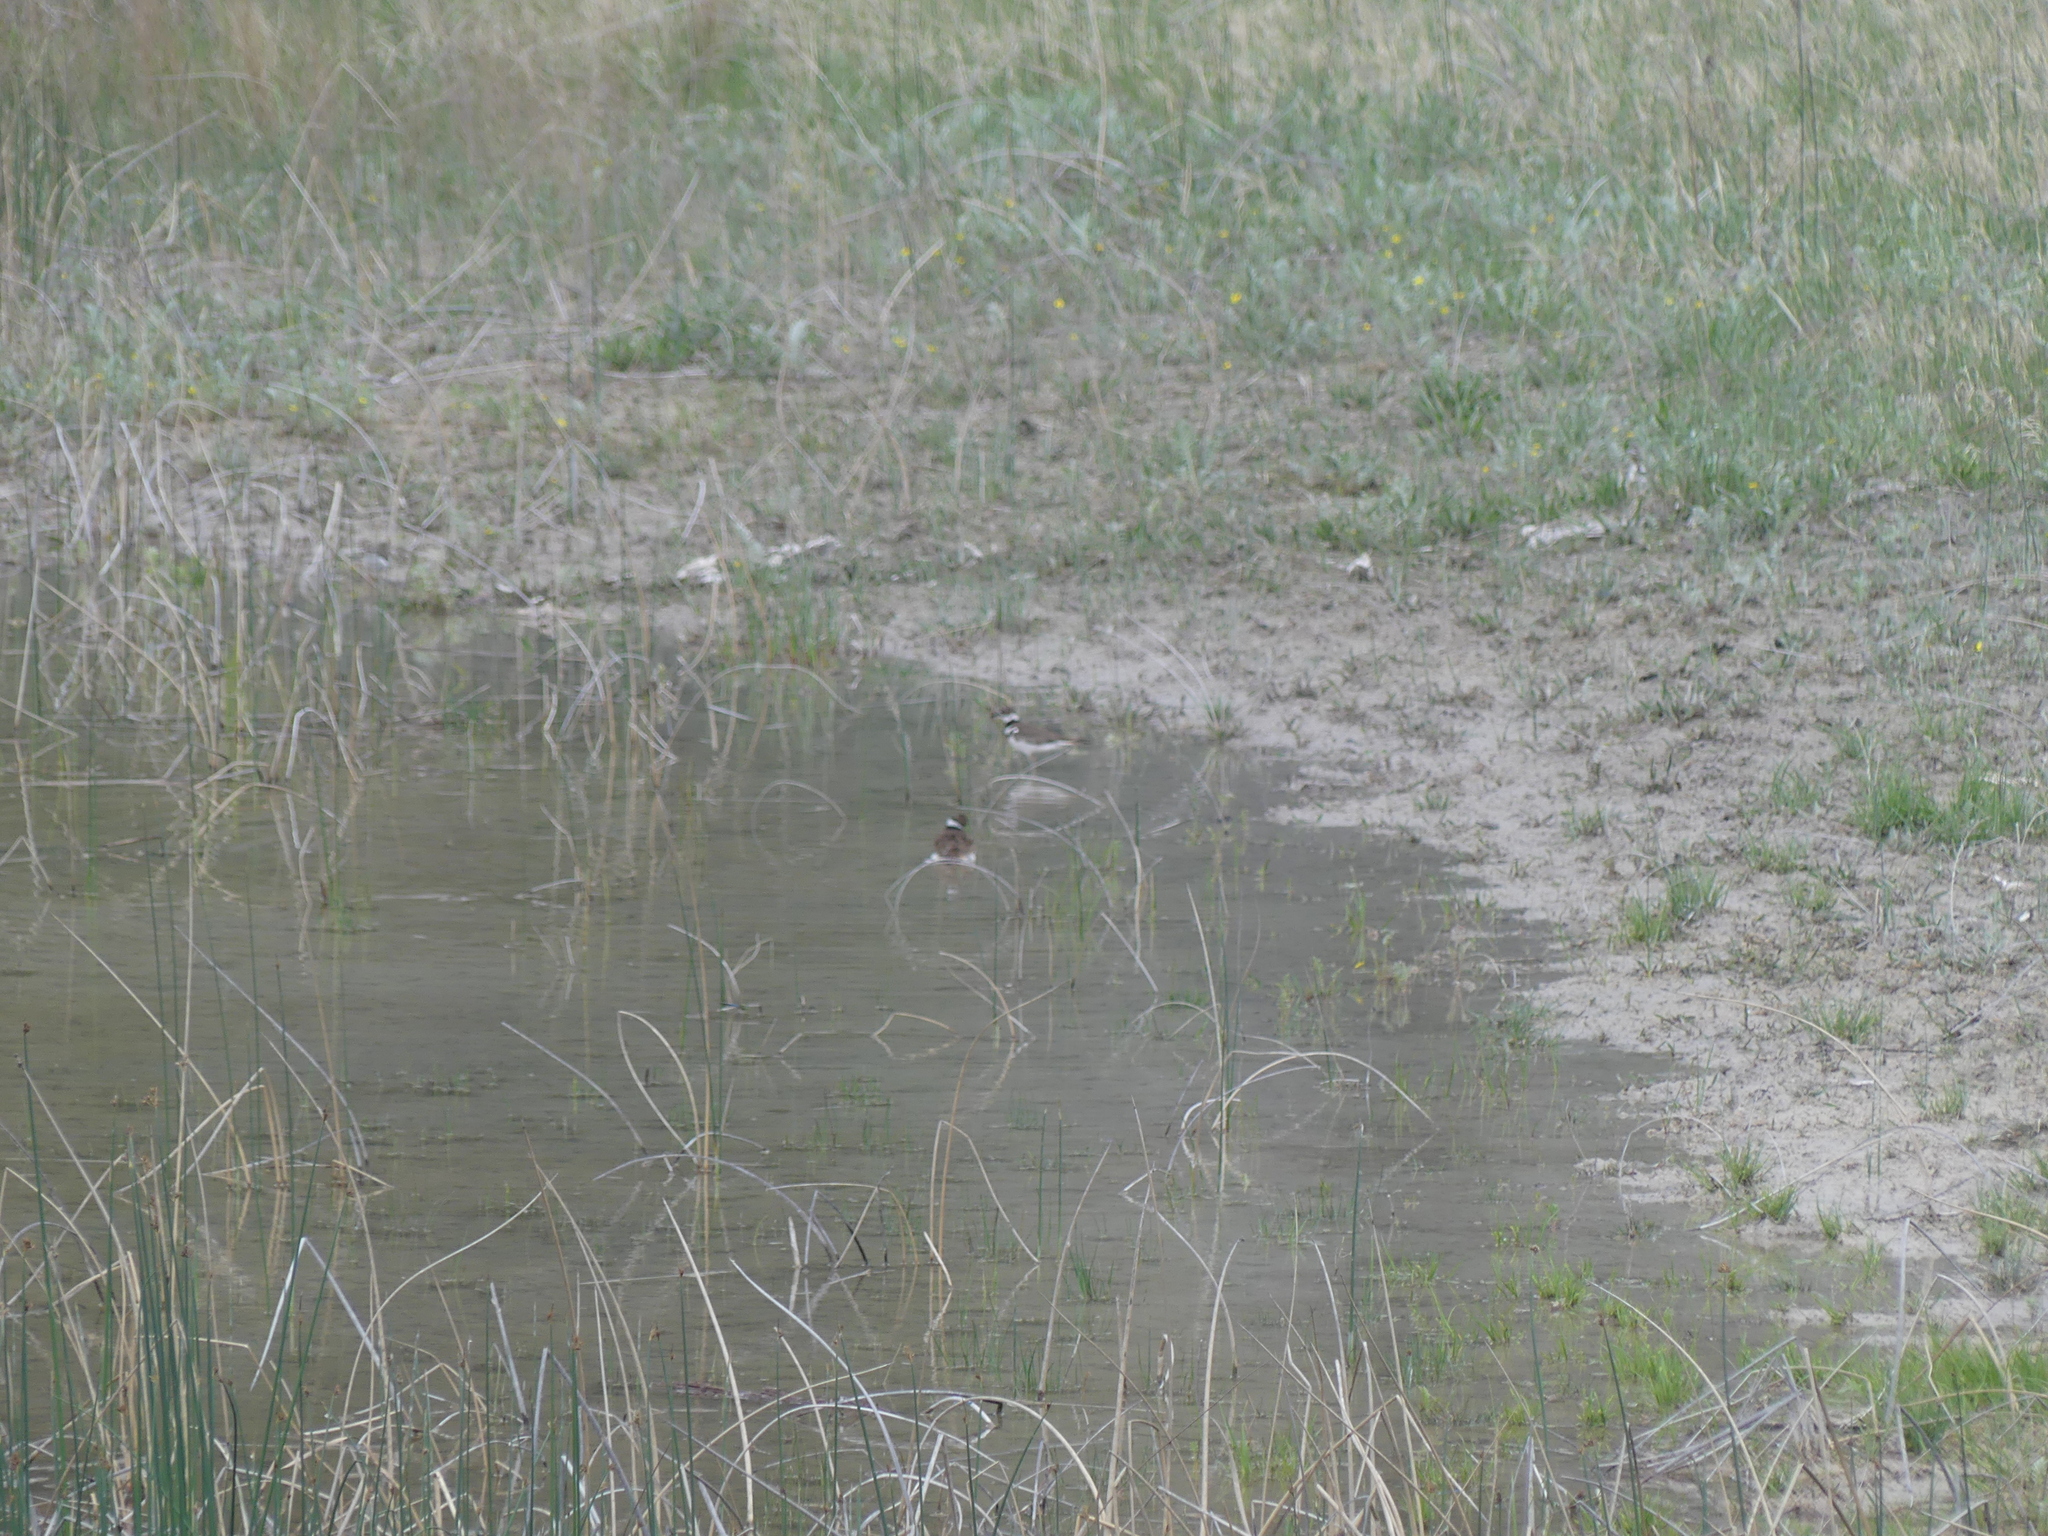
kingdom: Animalia
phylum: Chordata
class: Aves
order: Charadriiformes
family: Charadriidae
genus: Charadrius
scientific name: Charadrius vociferus
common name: Killdeer
